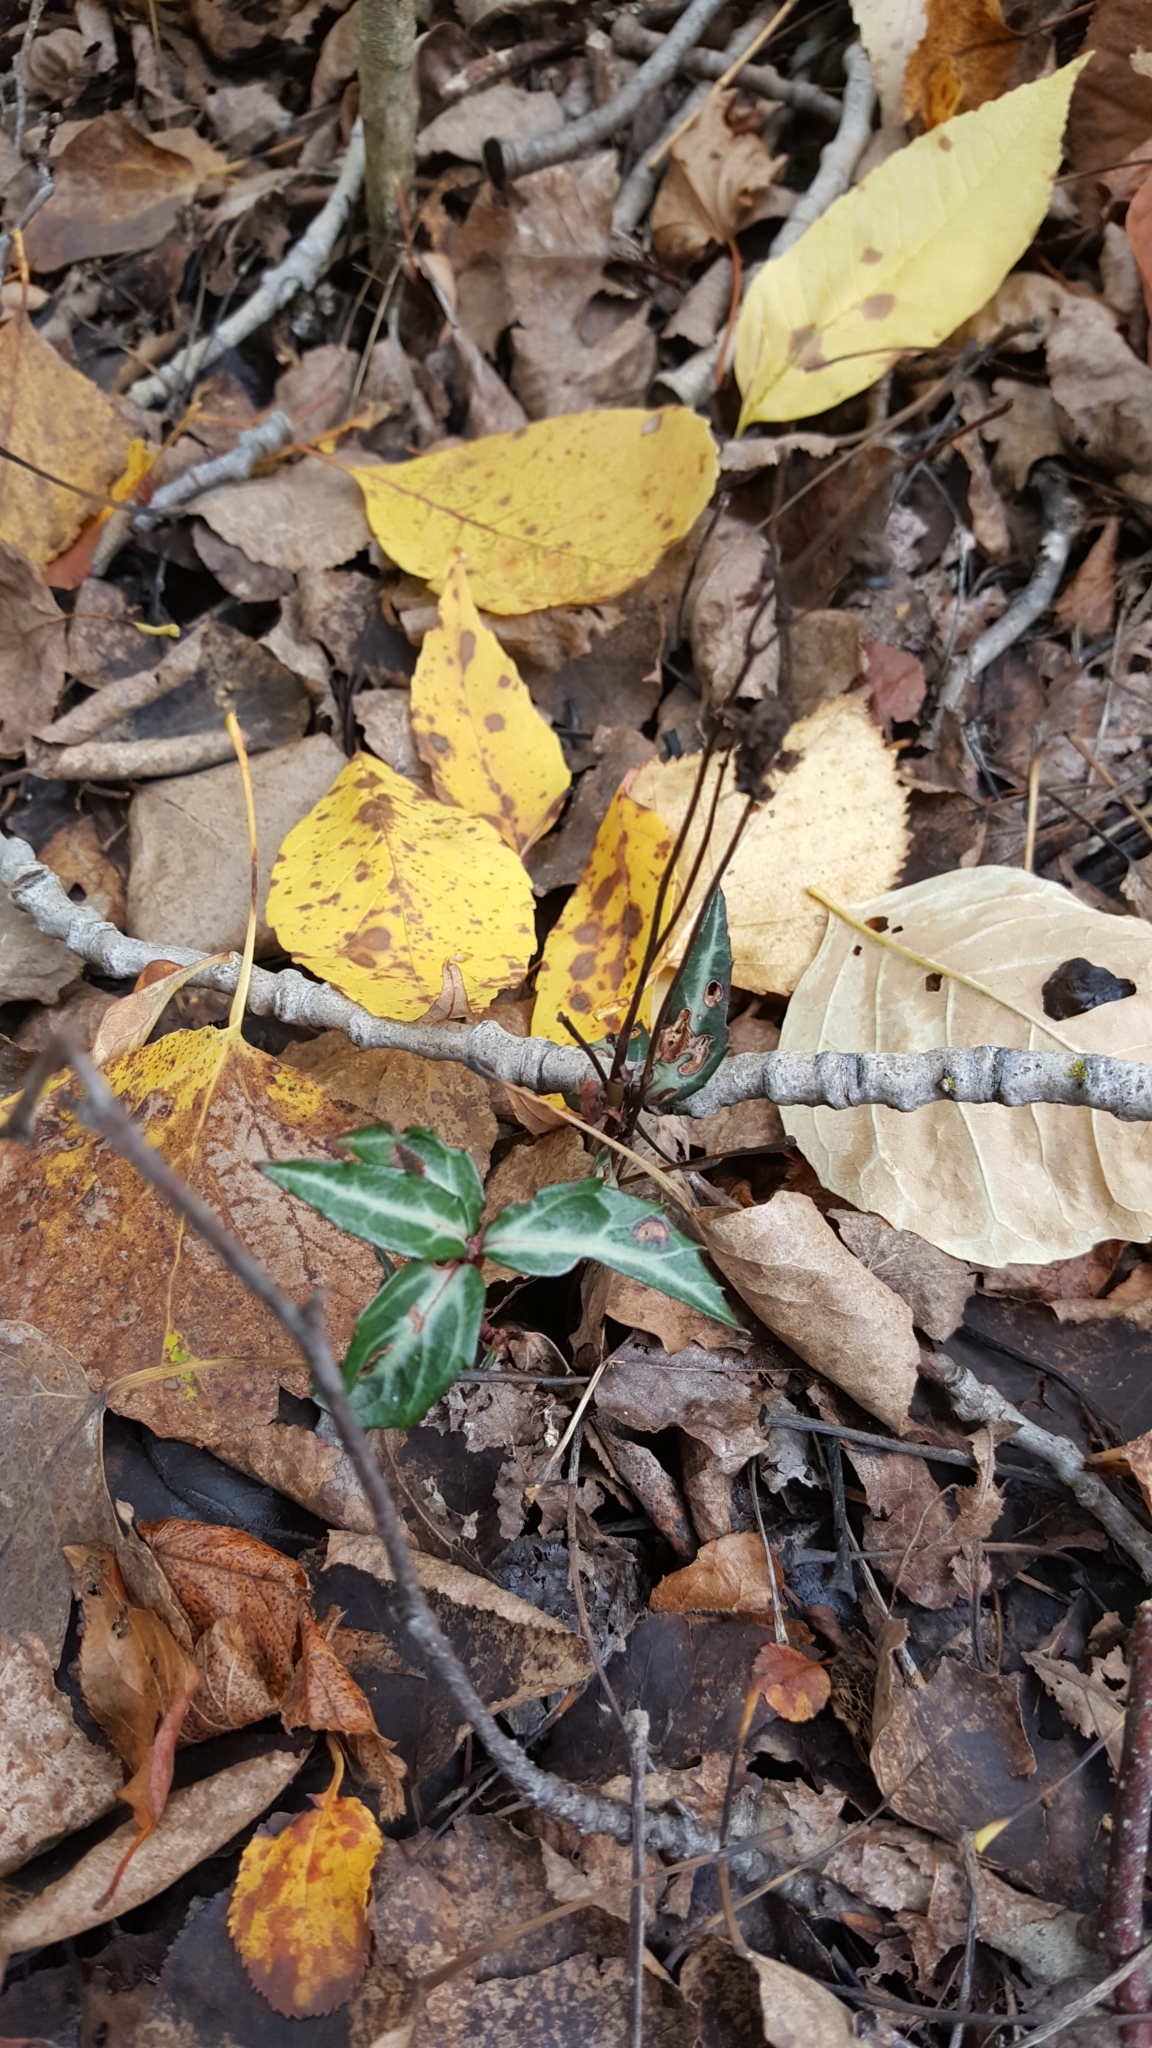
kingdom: Plantae
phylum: Tracheophyta
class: Magnoliopsida
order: Ericales
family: Ericaceae
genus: Chimaphila
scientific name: Chimaphila maculata
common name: Spotted pipsissewa
